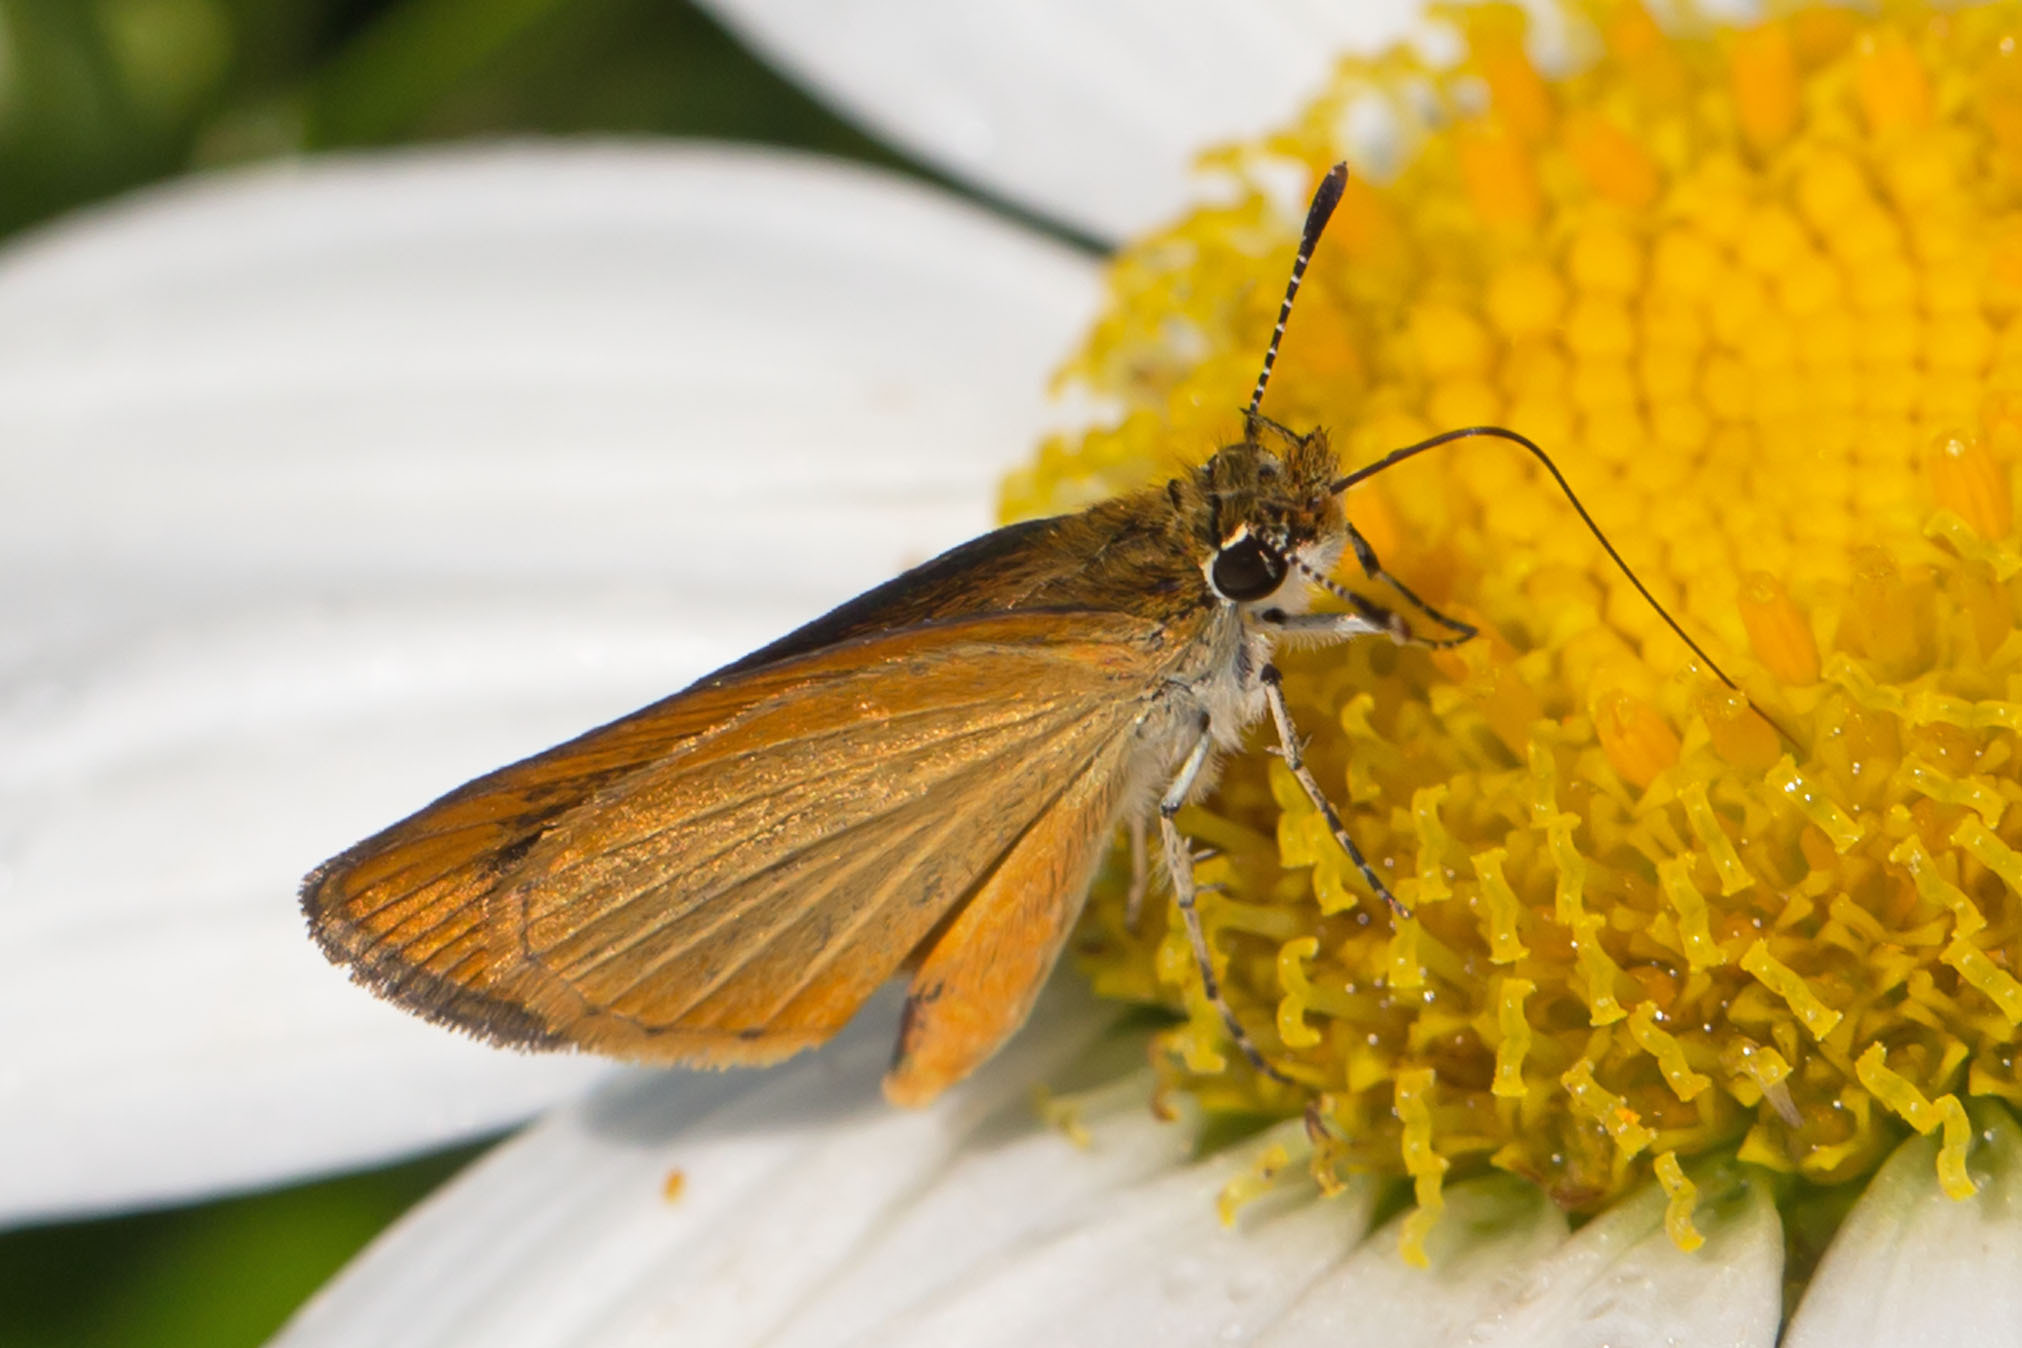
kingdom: Animalia
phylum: Arthropoda
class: Insecta
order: Lepidoptera
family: Hesperiidae
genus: Ancyloxypha
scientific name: Ancyloxypha numitor
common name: Least skipper
